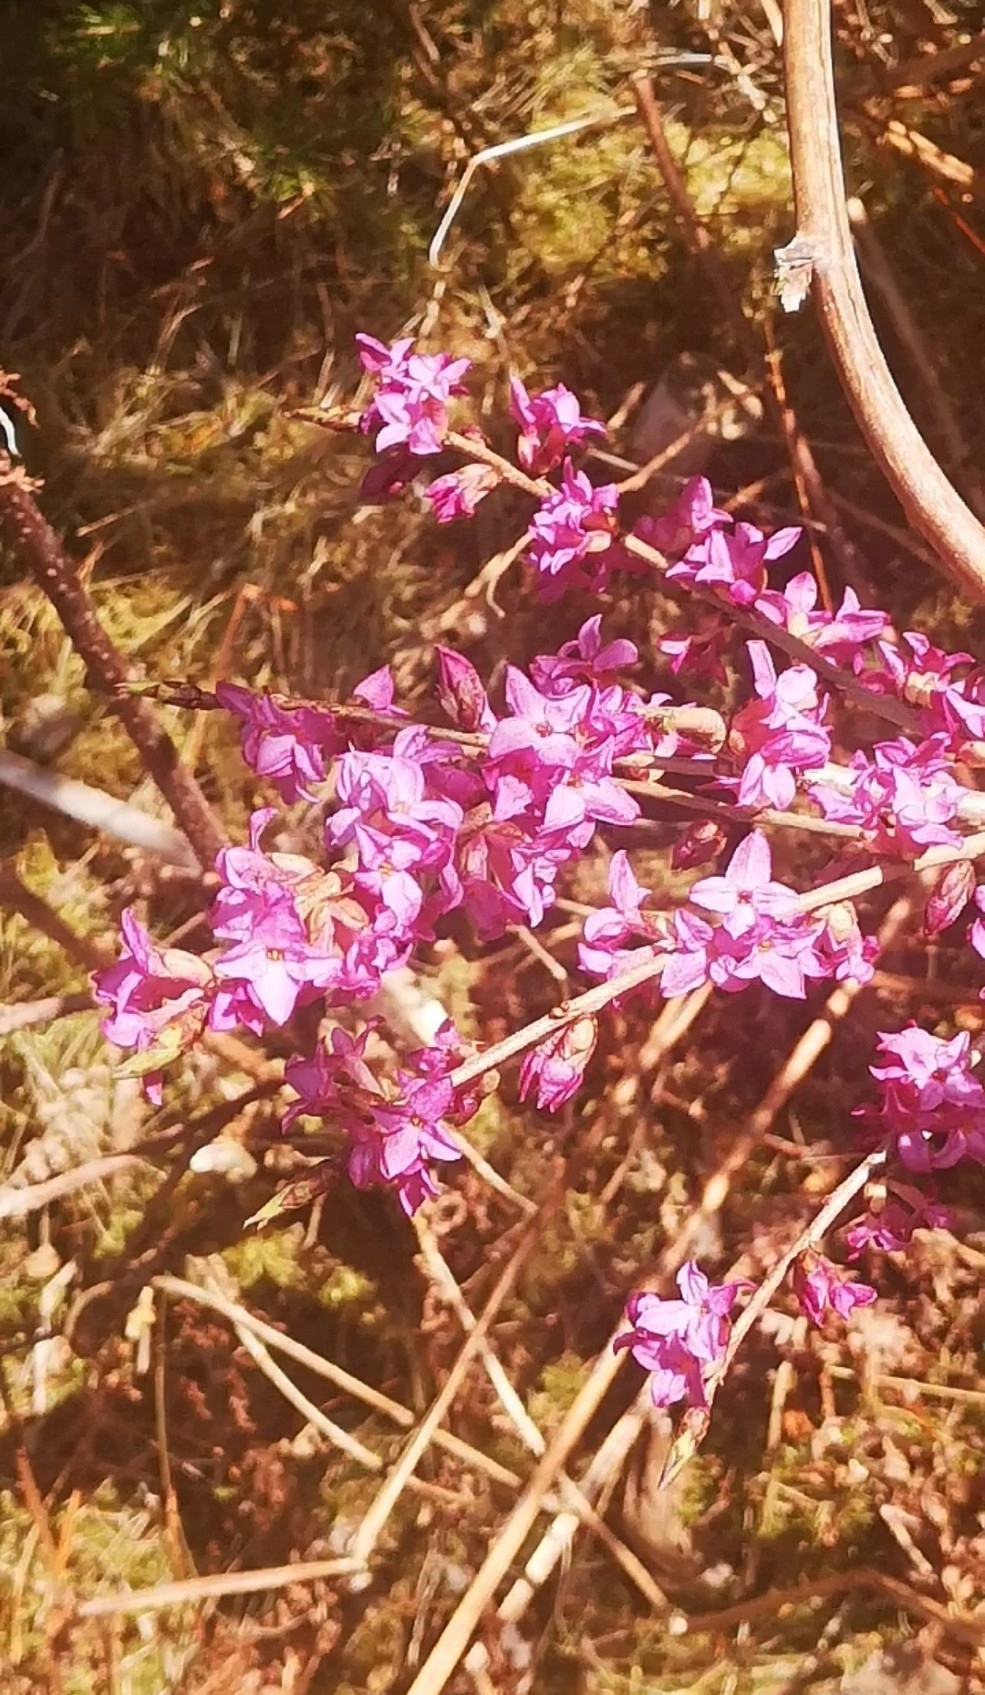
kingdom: Plantae
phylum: Tracheophyta
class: Magnoliopsida
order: Malvales
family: Thymelaeaceae
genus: Daphne
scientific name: Daphne mezereum
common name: Mezereon
